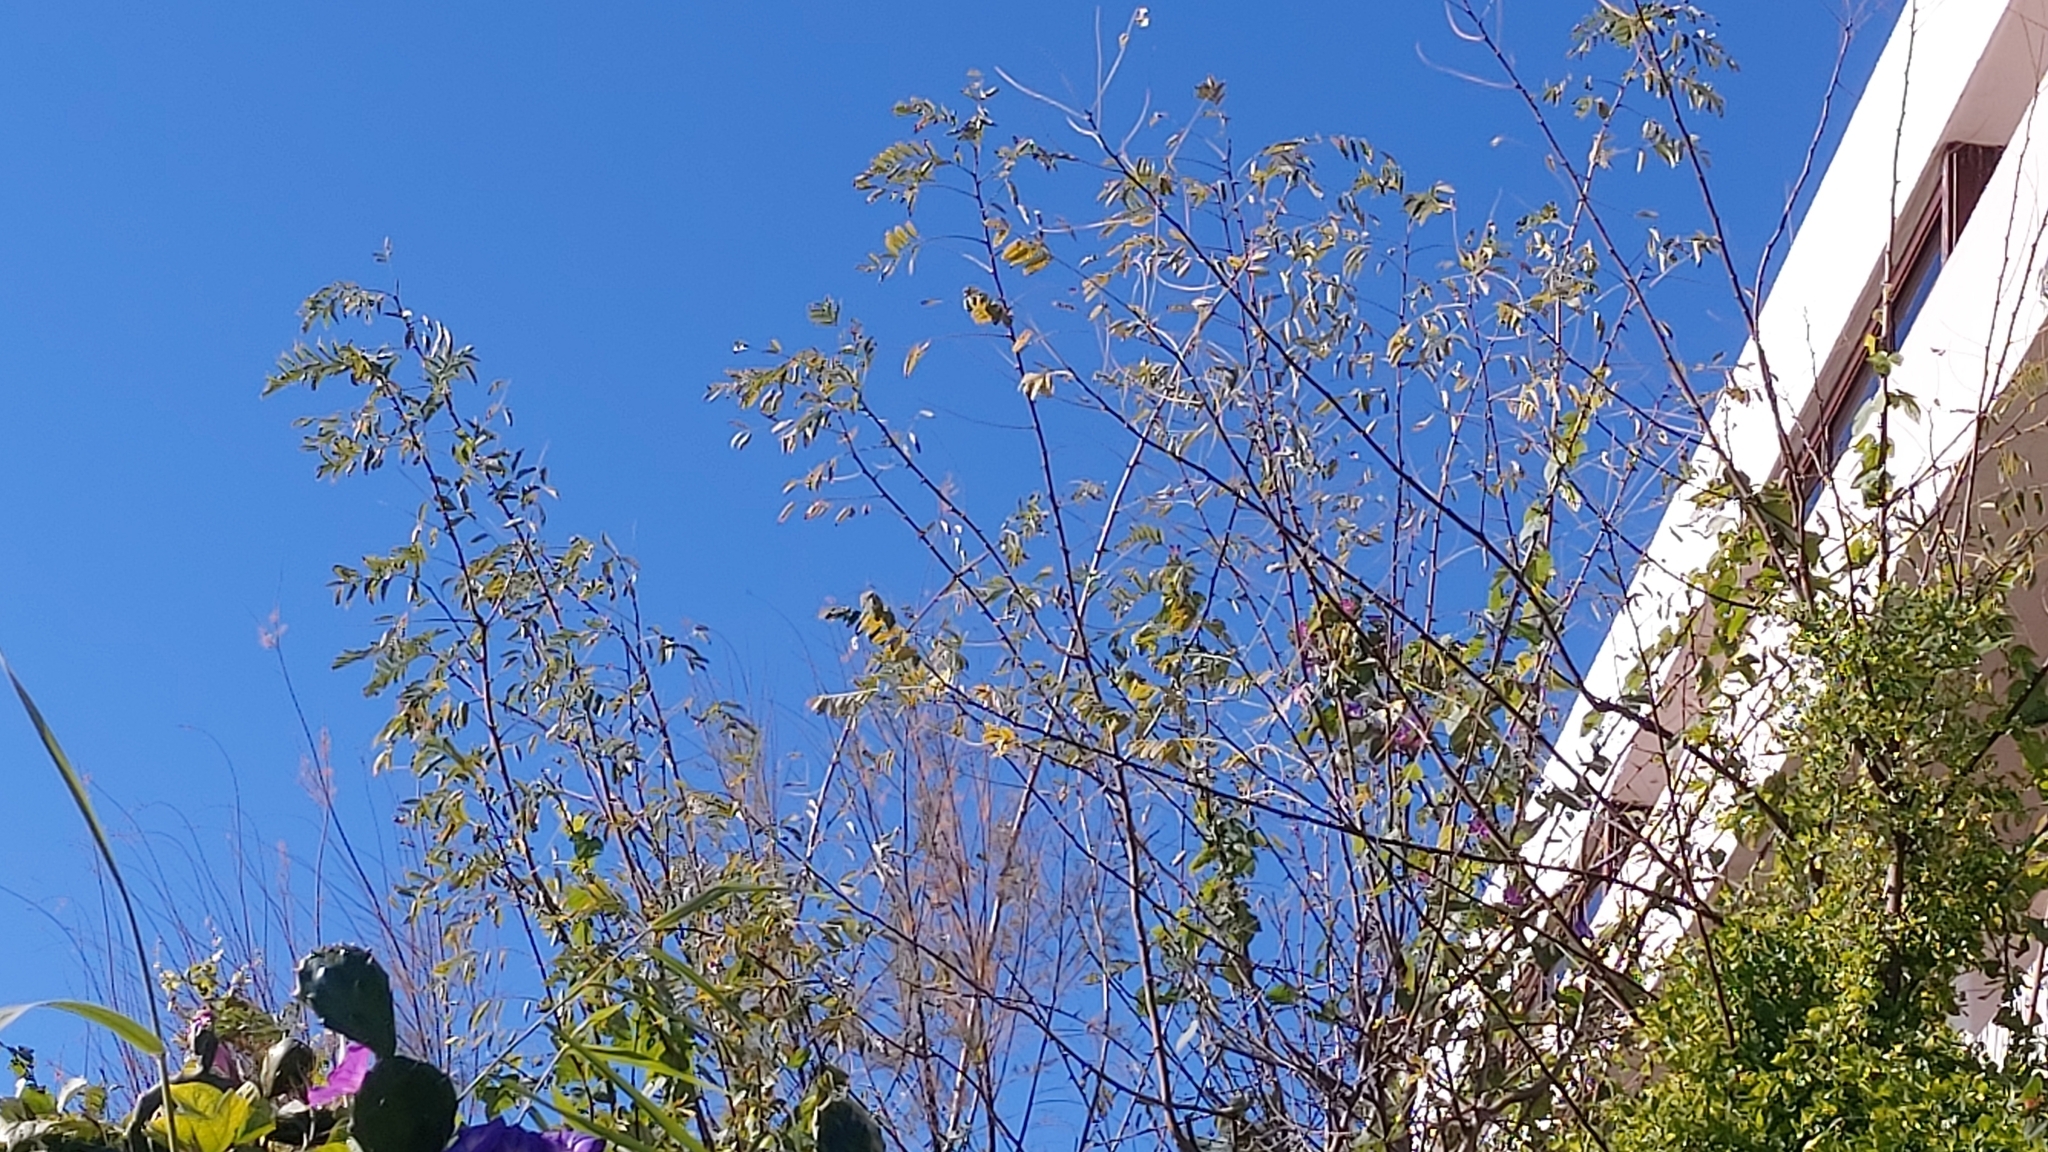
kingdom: Plantae
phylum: Tracheophyta
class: Magnoliopsida
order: Fabales
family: Fabaceae
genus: Robinia
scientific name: Robinia pseudoacacia
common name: Black locust
